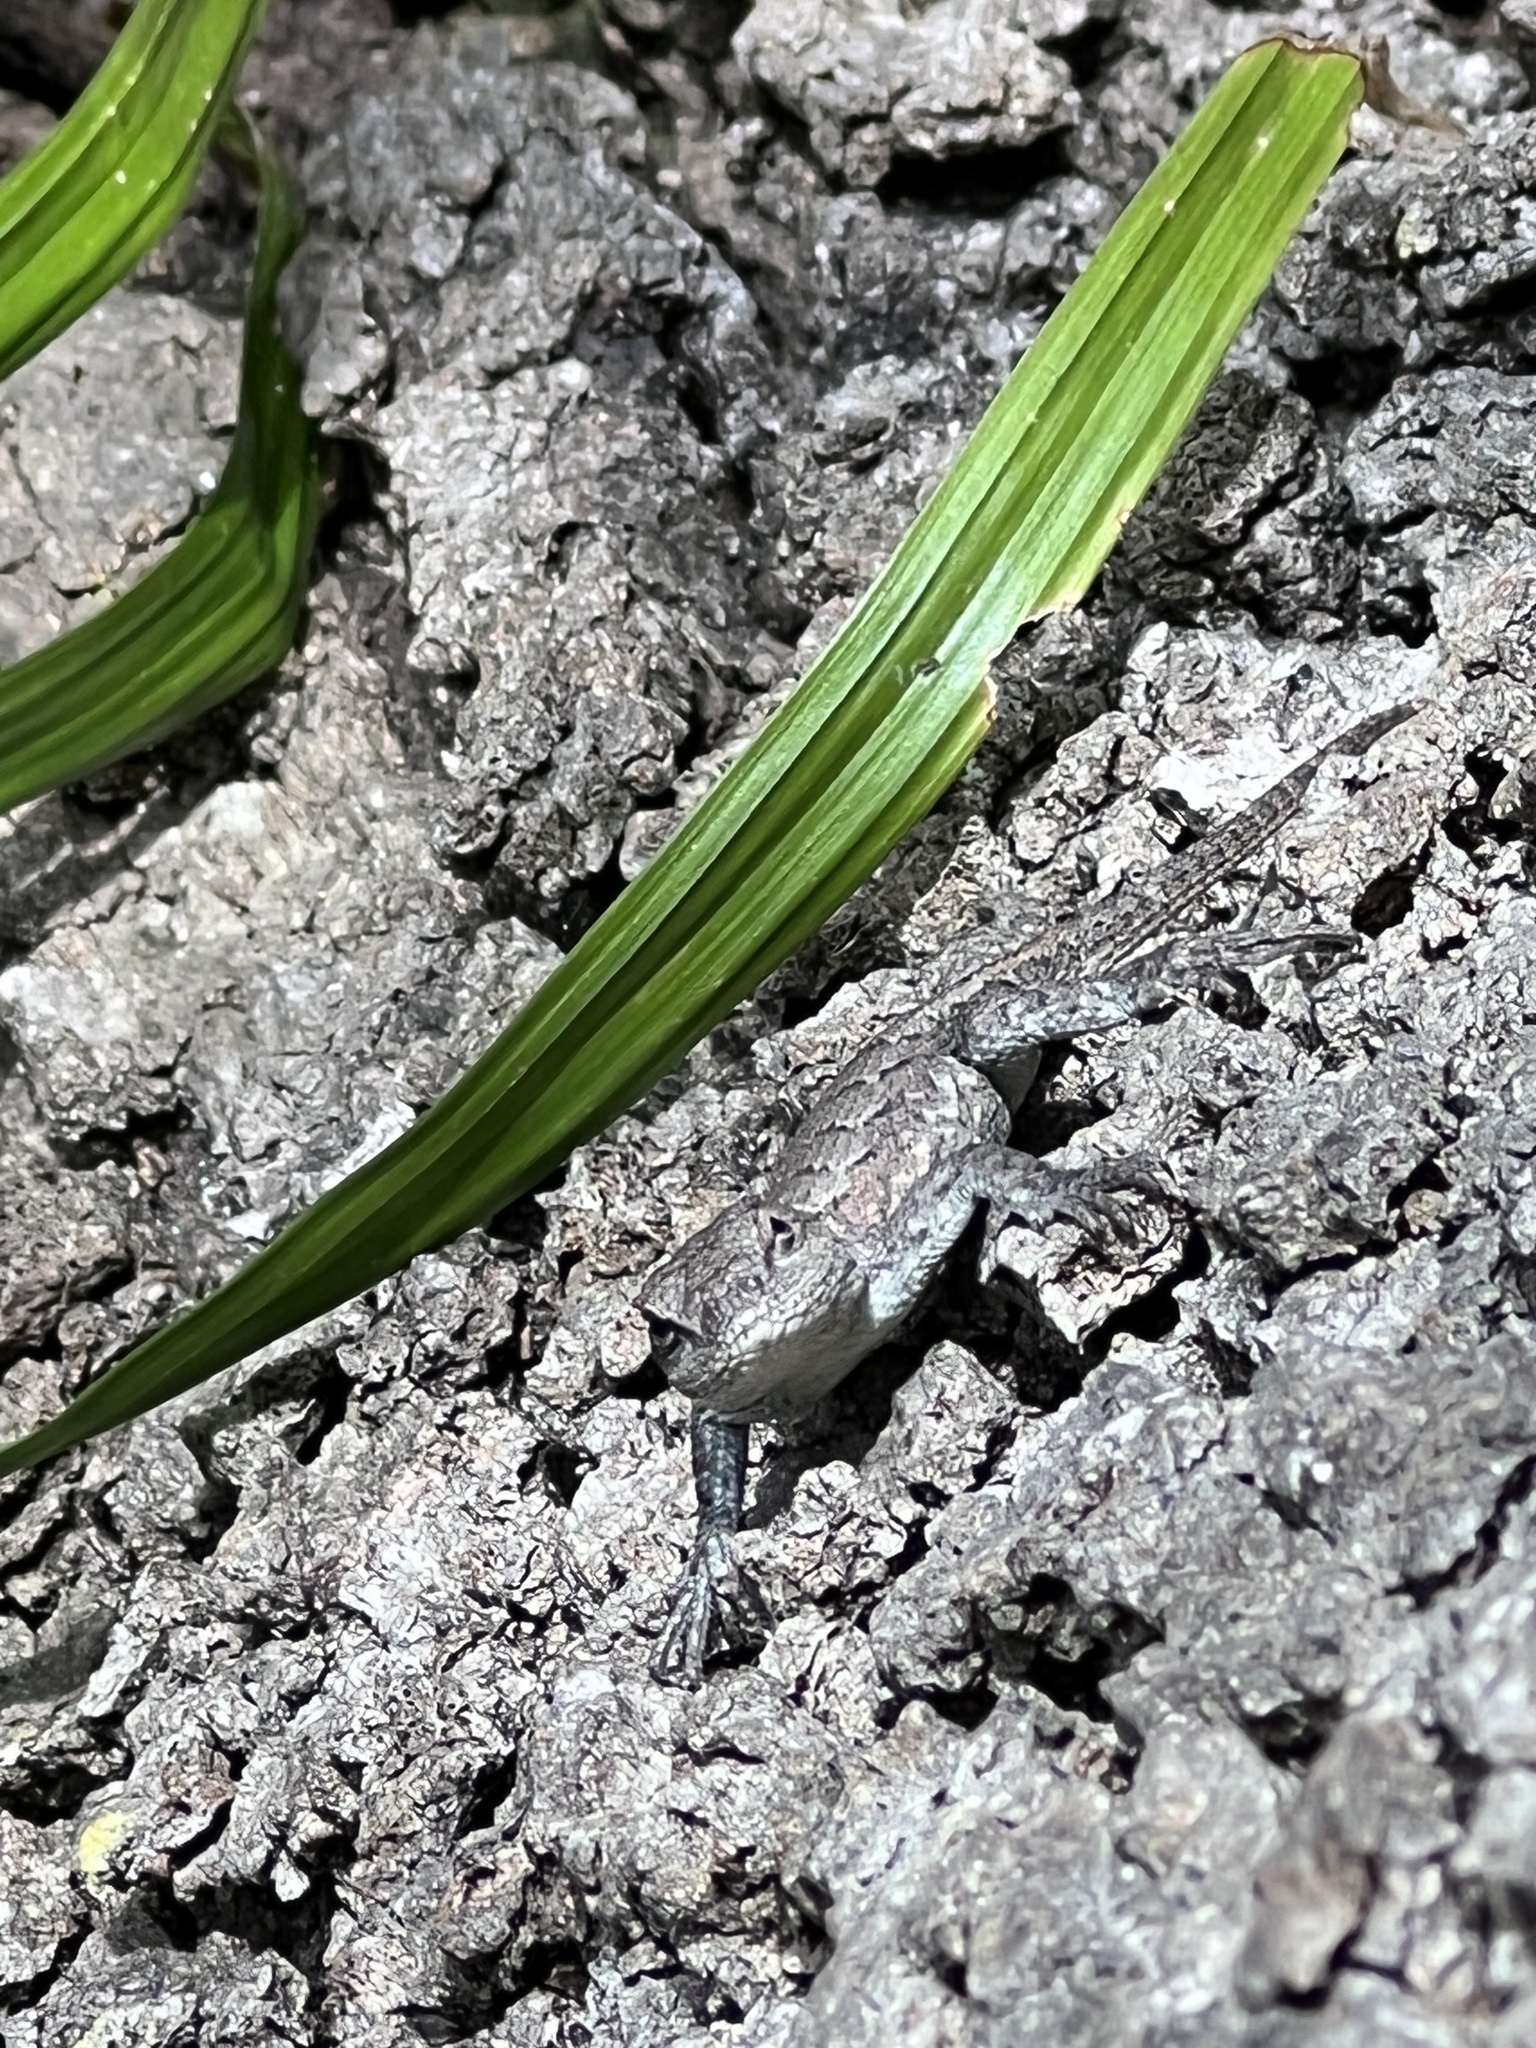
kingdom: Animalia
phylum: Chordata
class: Squamata
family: Phrynosomatidae
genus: Sceloporus
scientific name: Sceloporus consobrinus
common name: Southern prairie lizard
